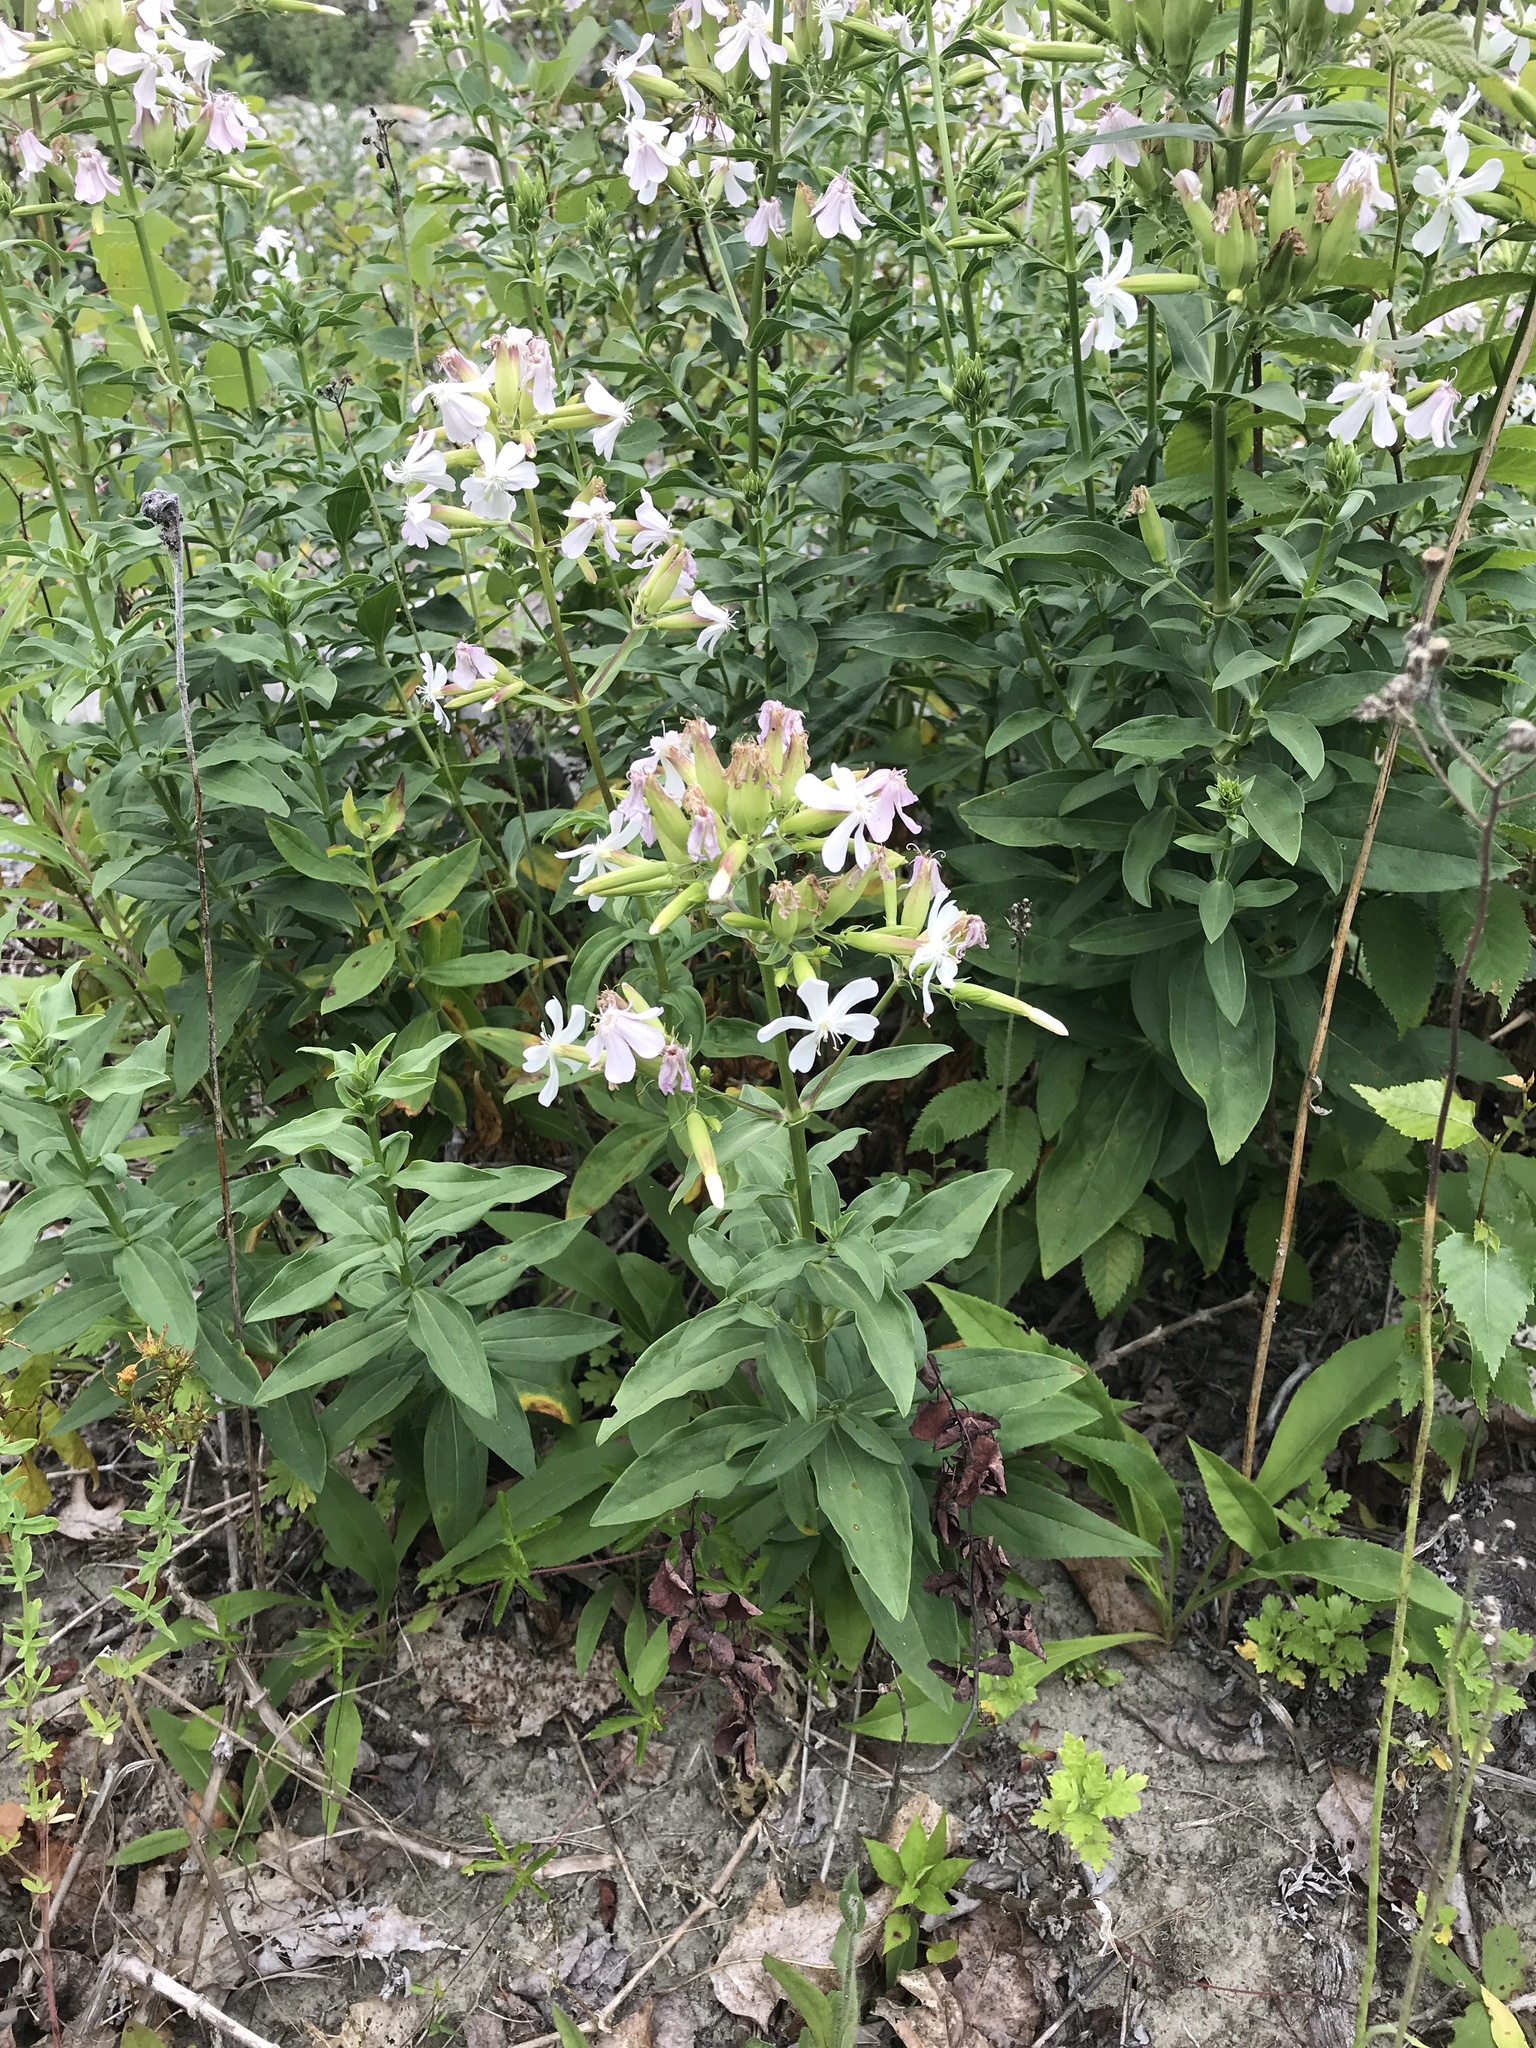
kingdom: Plantae
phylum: Tracheophyta
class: Magnoliopsida
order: Caryophyllales
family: Caryophyllaceae
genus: Saponaria
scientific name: Saponaria officinalis
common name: Soapwort
